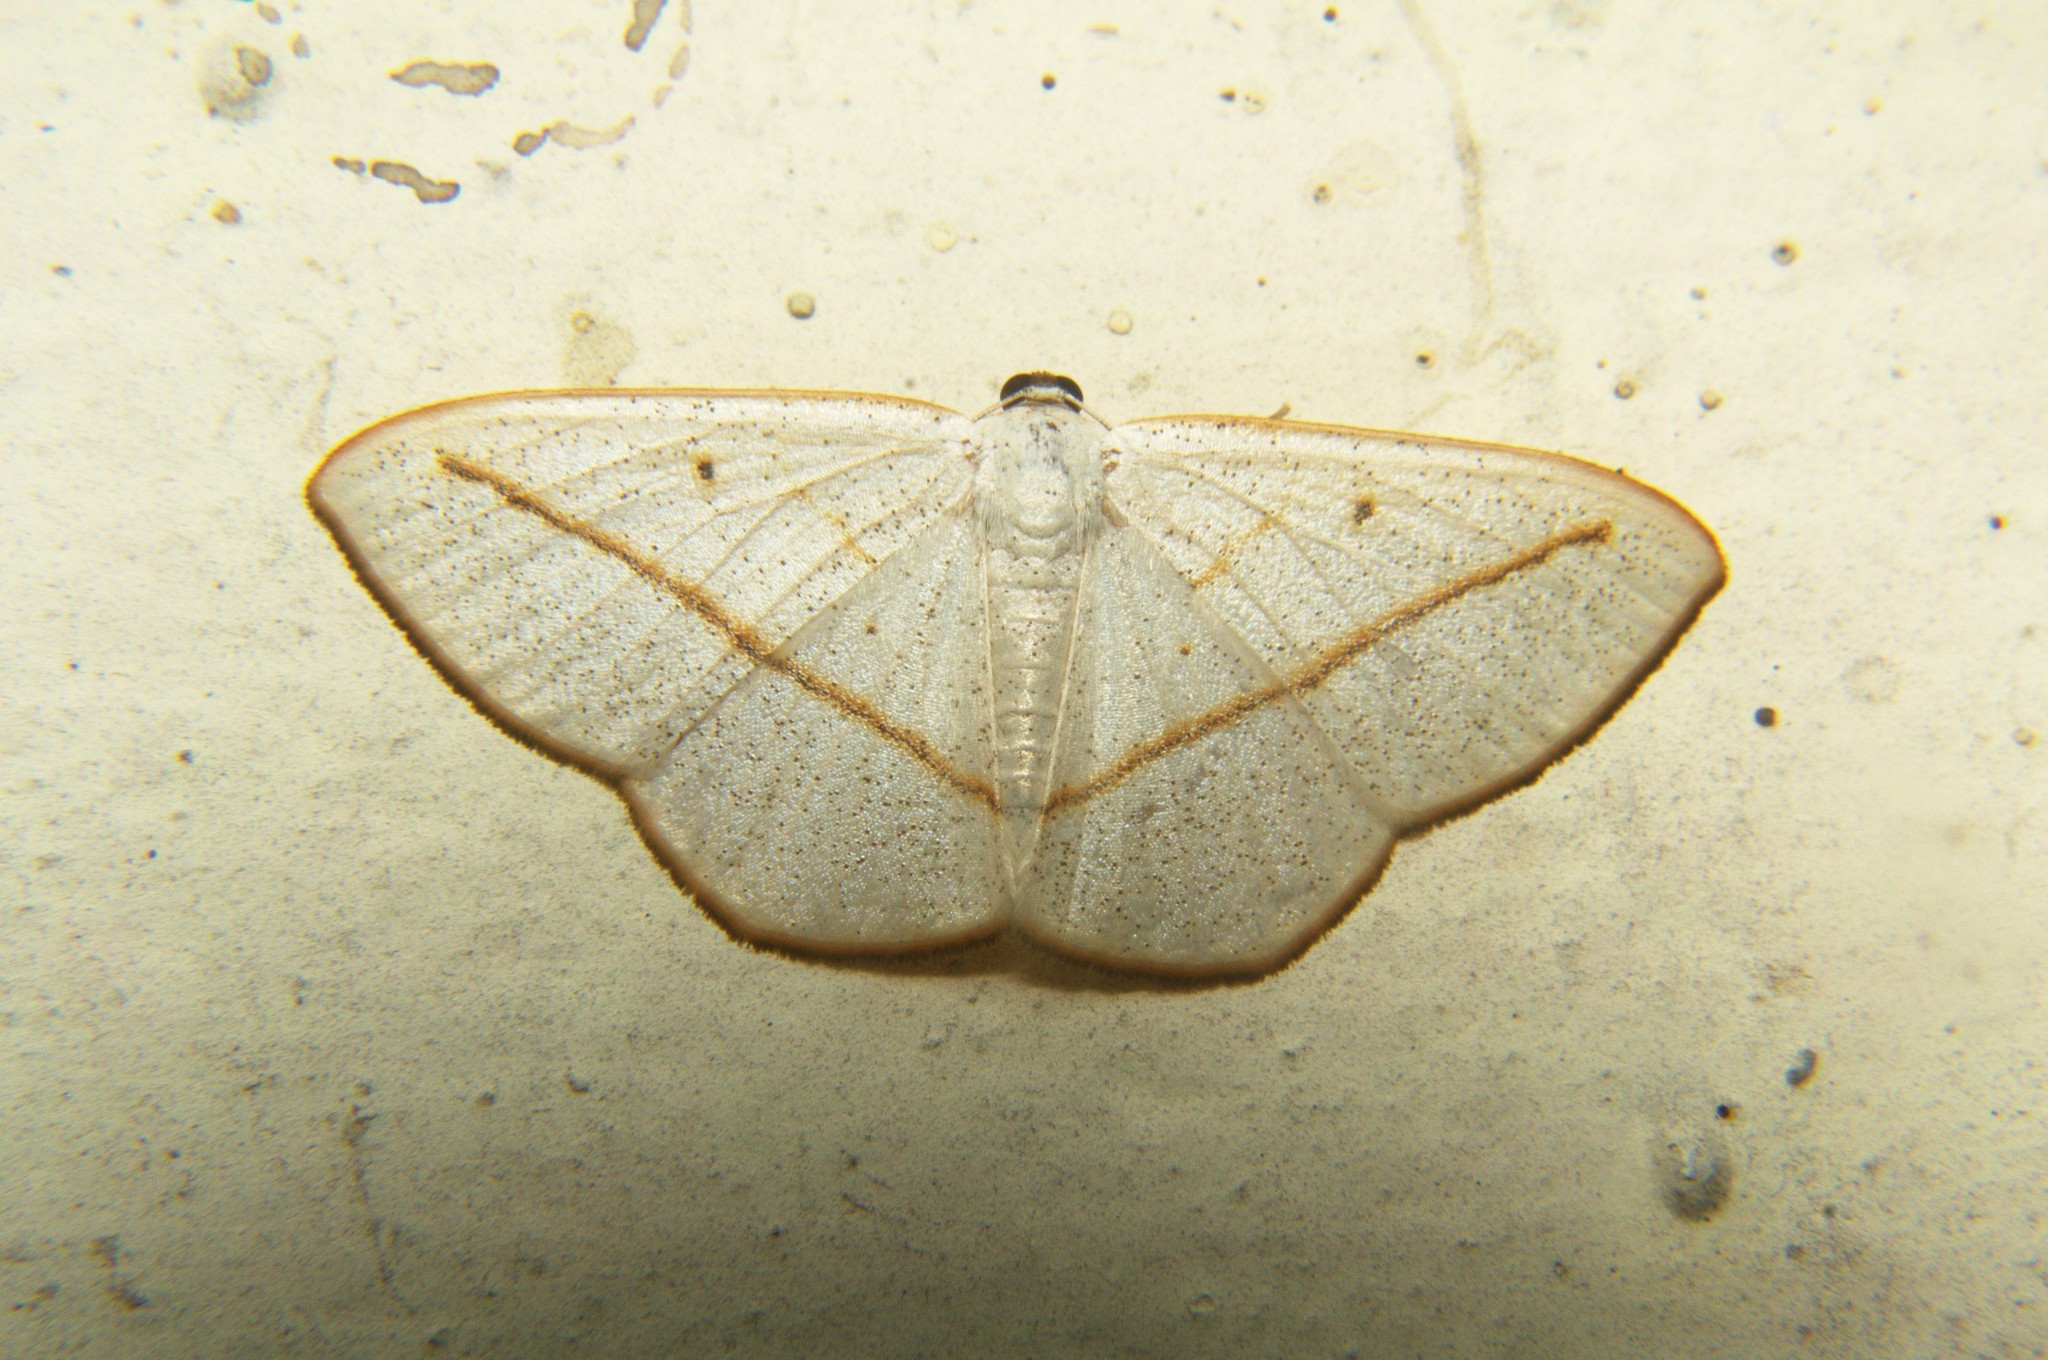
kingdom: Animalia
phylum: Arthropoda
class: Insecta
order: Lepidoptera
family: Geometridae
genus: Lomographa
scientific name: Lomographa inamata
